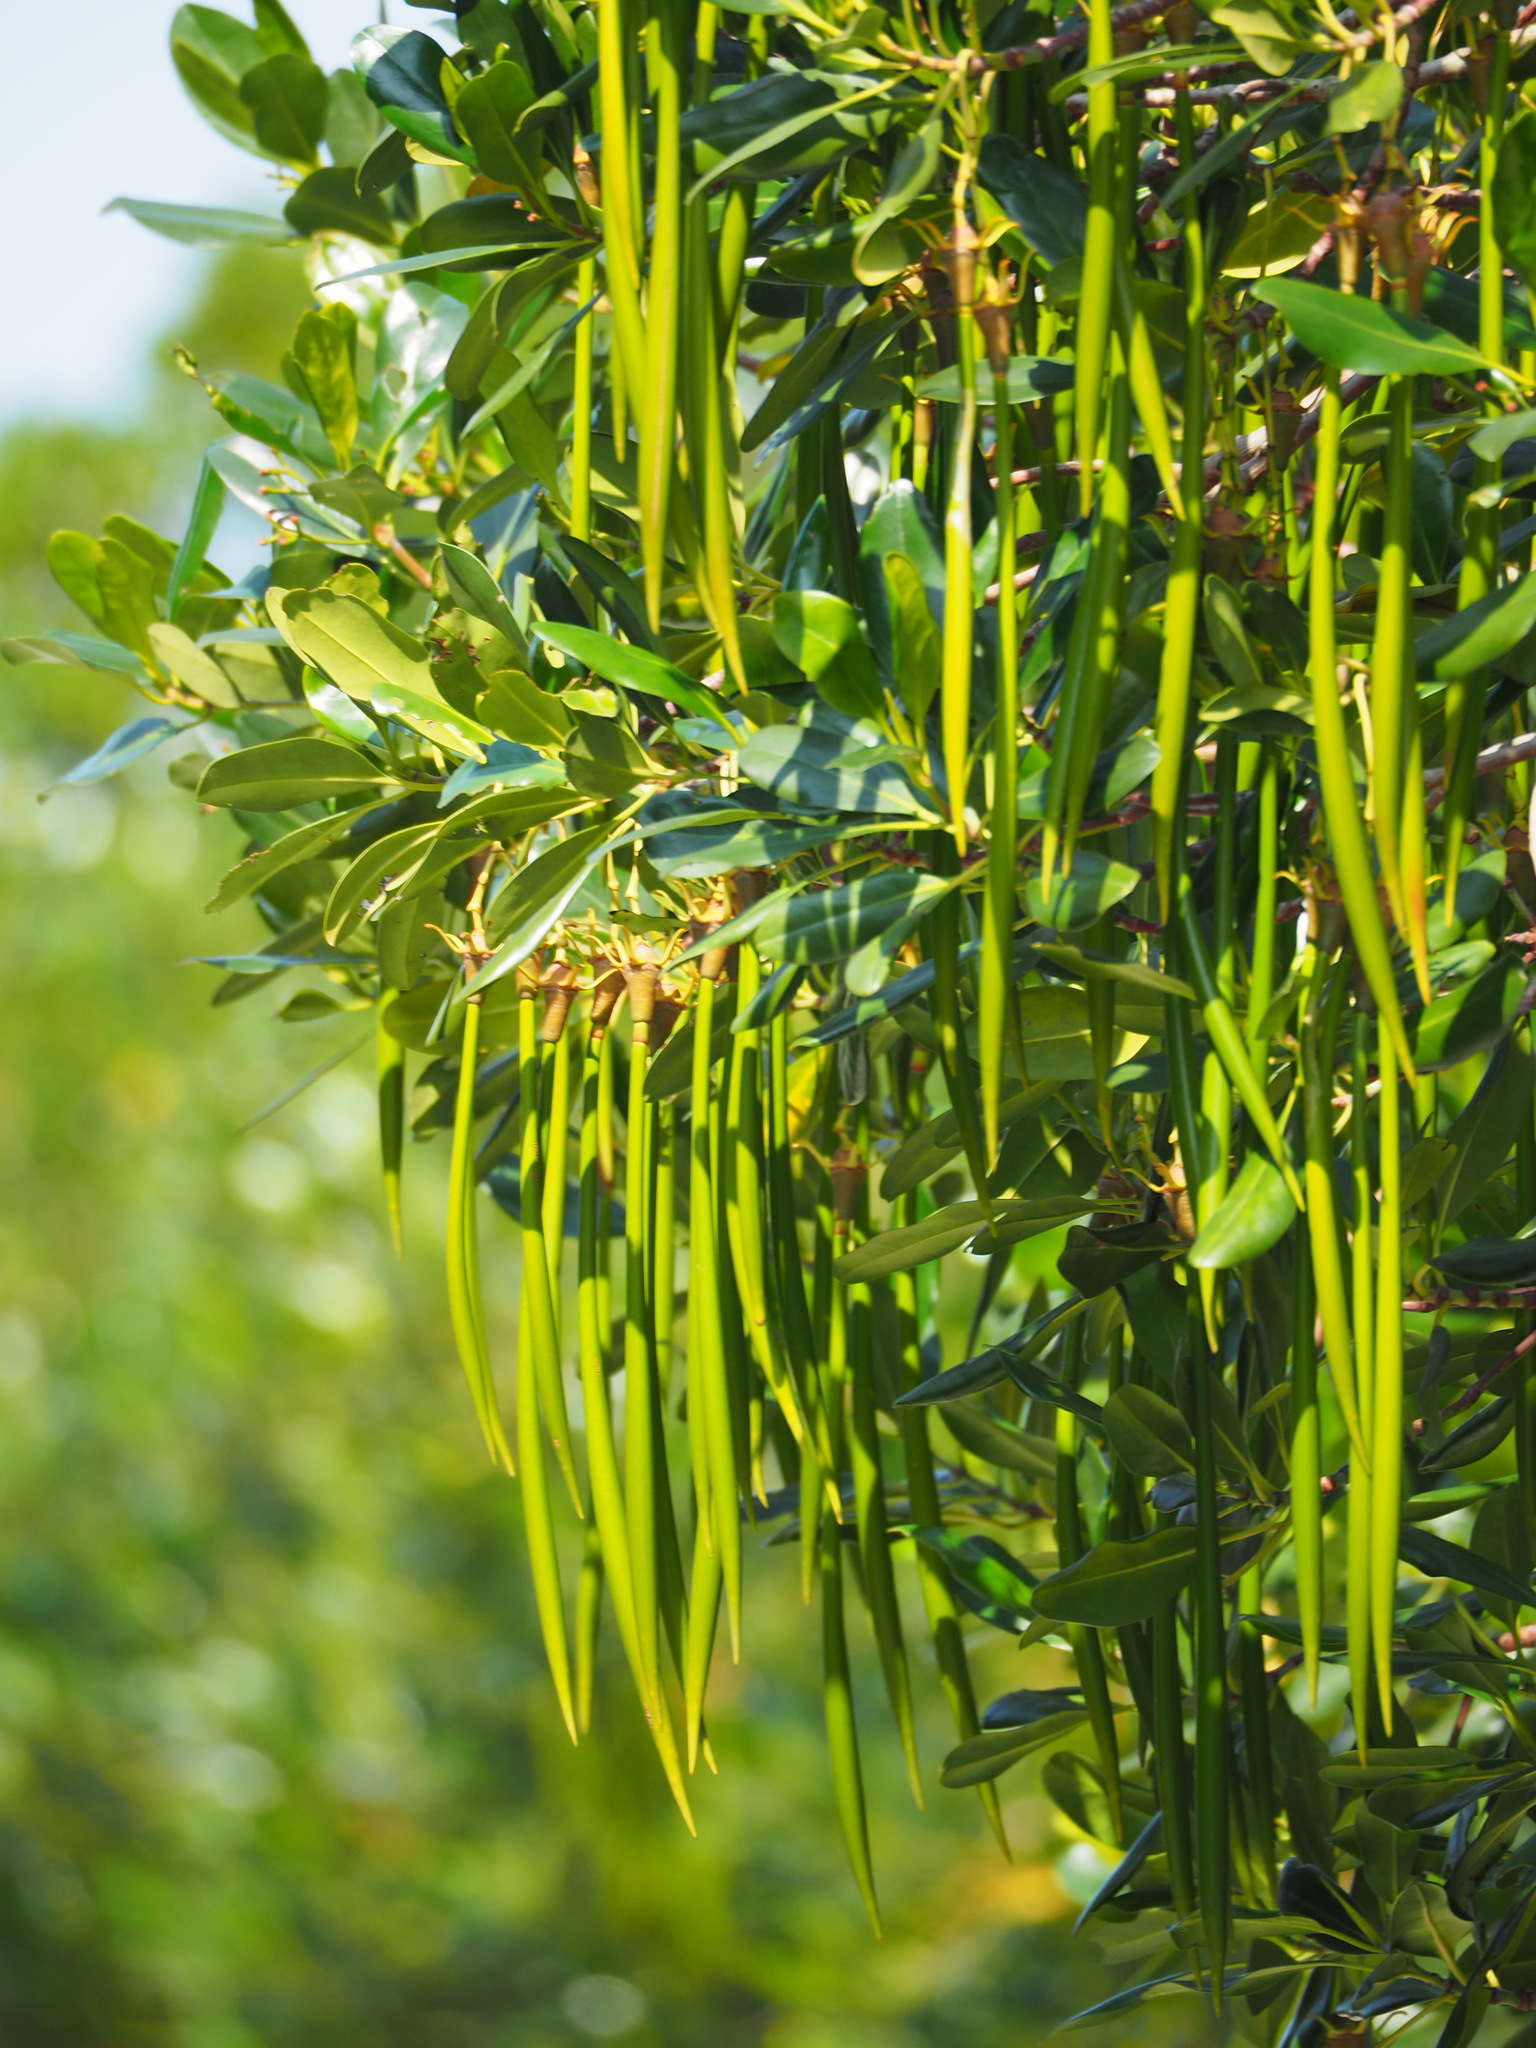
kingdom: Plantae
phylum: Tracheophyta
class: Magnoliopsida
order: Malpighiales
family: Rhizophoraceae
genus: Kandelia
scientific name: Kandelia obovata
